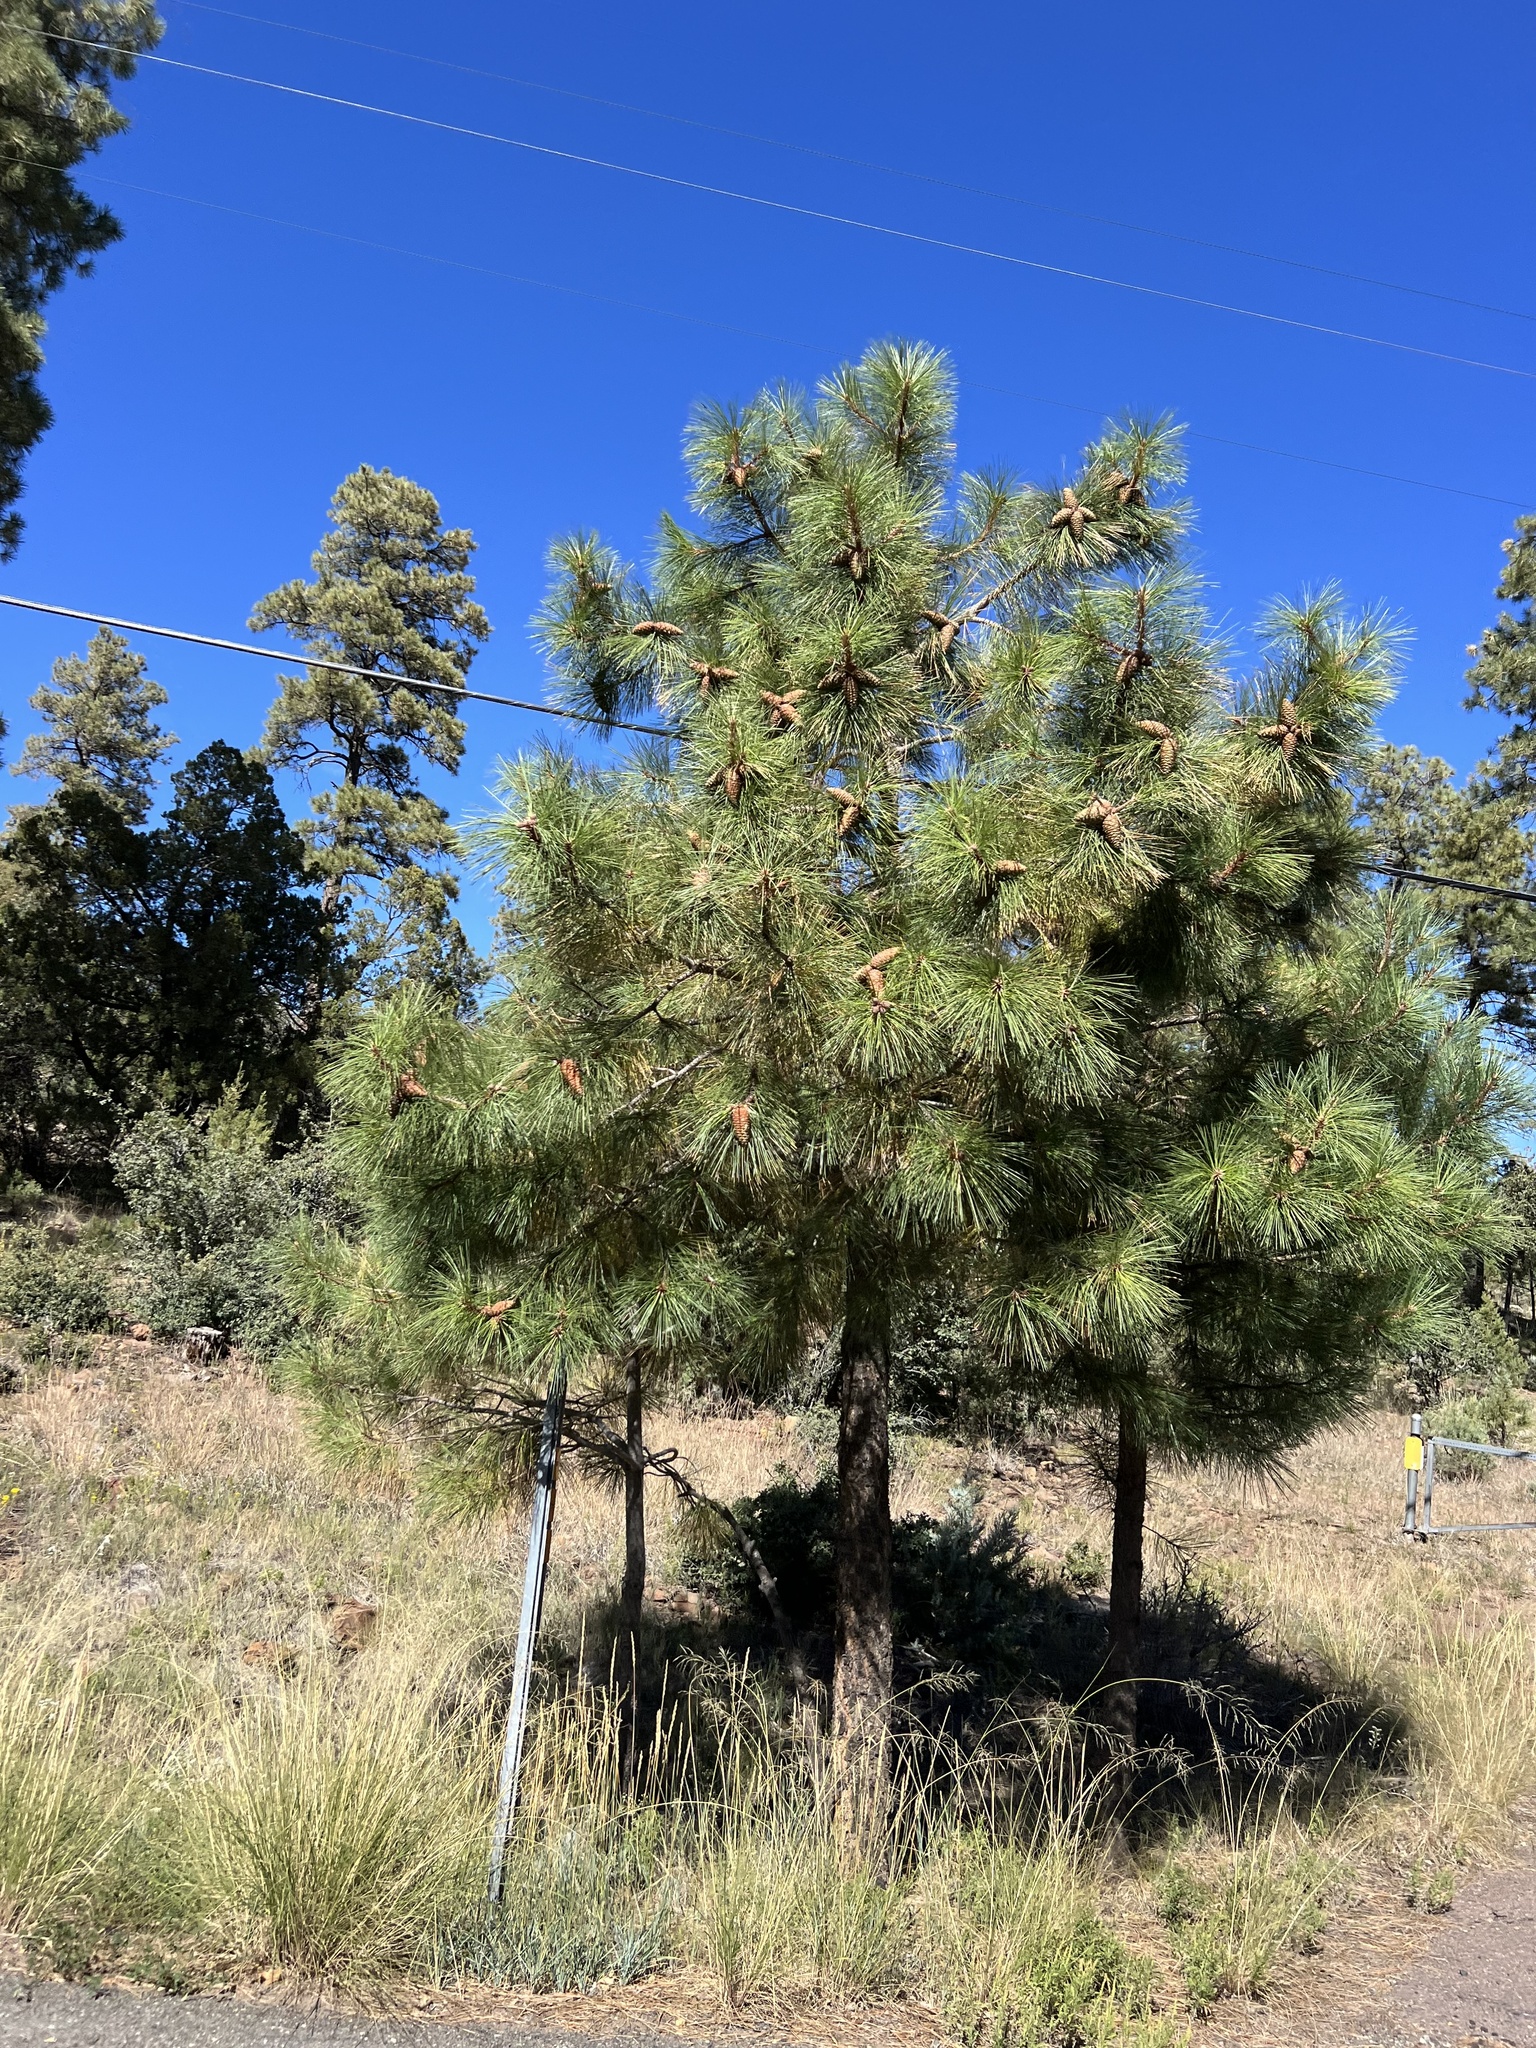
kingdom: Plantae
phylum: Tracheophyta
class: Pinopsida
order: Pinales
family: Pinaceae
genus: Pinus
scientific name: Pinus ponderosa
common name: Western yellow-pine
